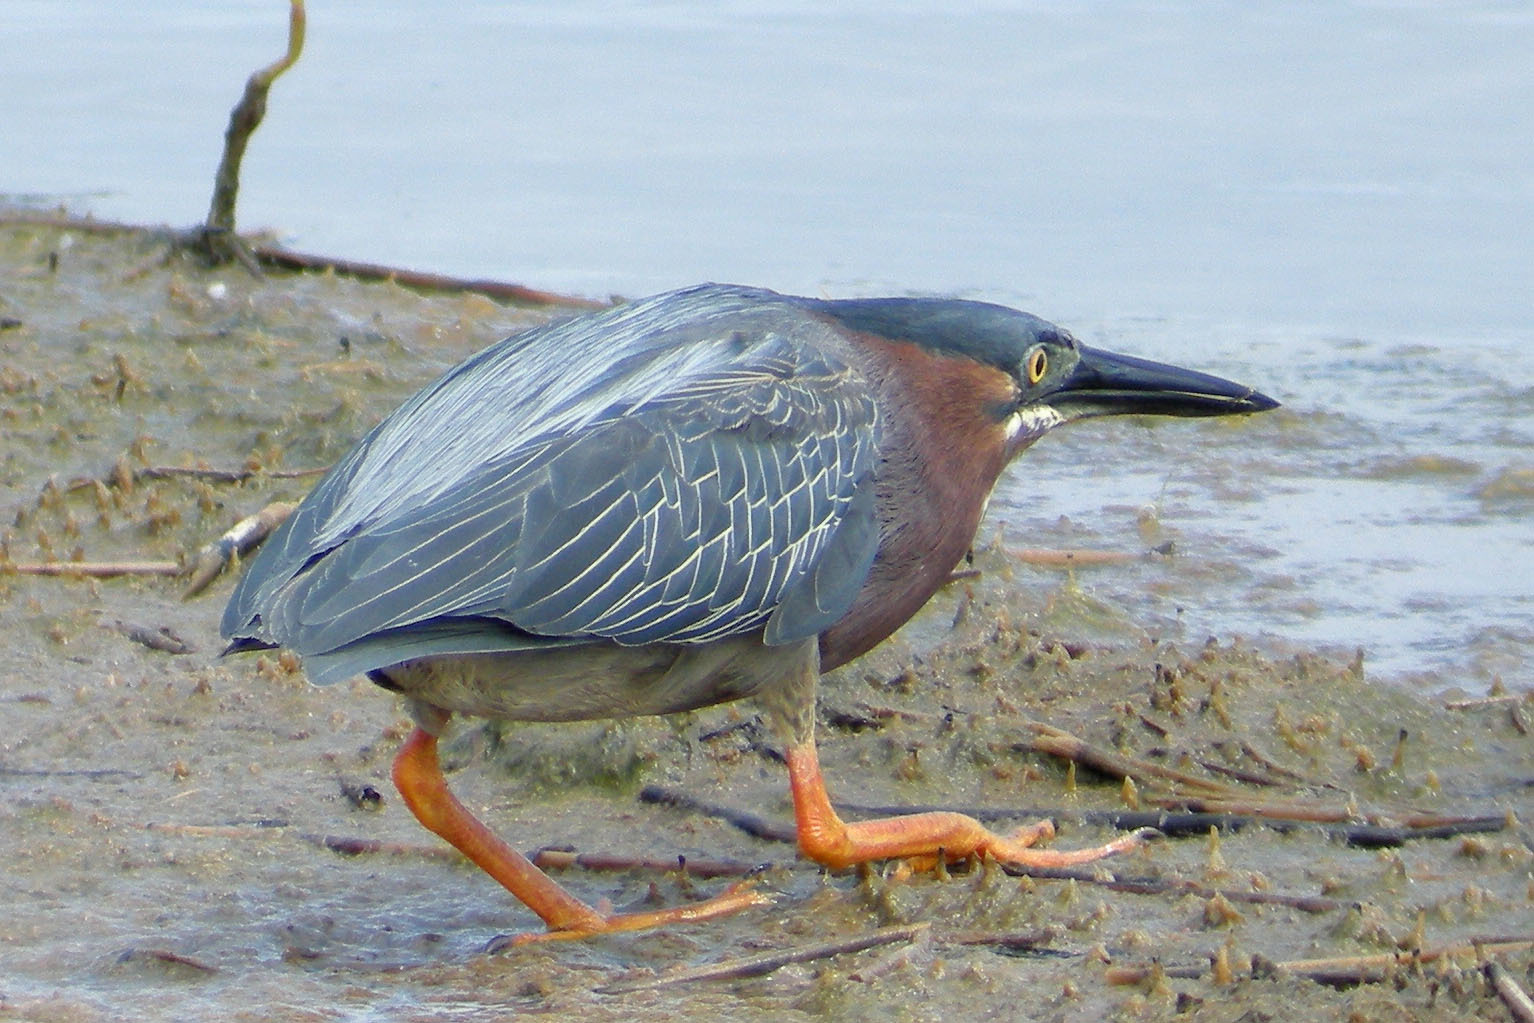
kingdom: Animalia
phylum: Chordata
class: Aves
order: Pelecaniformes
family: Ardeidae
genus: Butorides
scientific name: Butorides virescens
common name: Green heron
